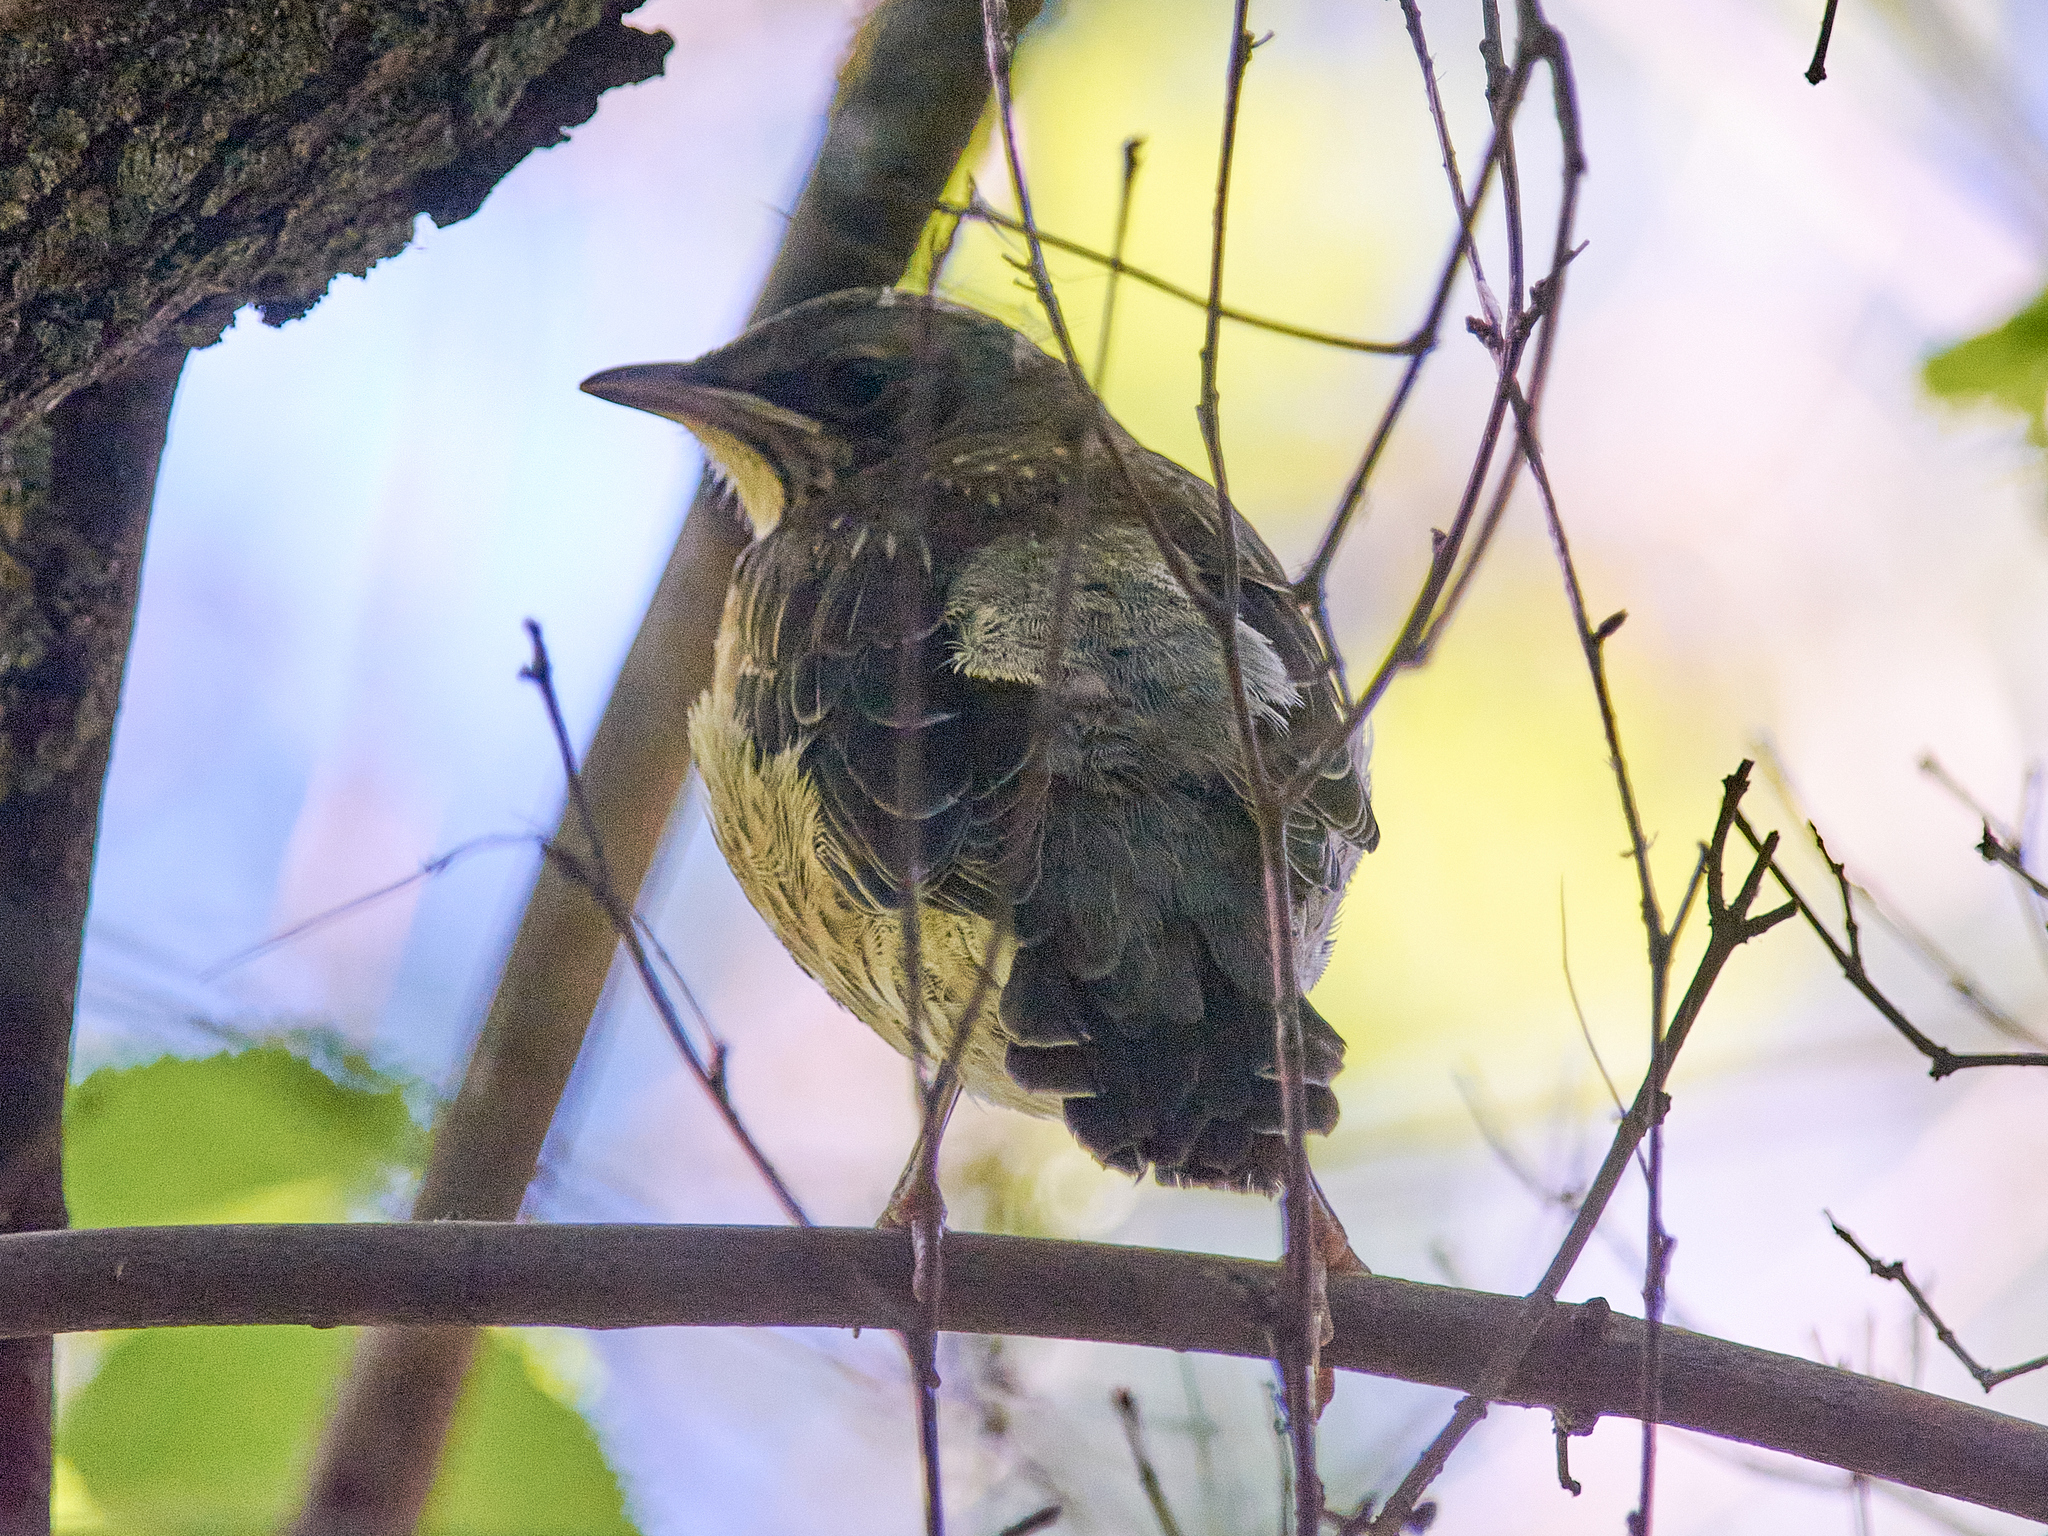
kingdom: Animalia
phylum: Chordata
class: Aves
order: Passeriformes
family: Turdidae
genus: Turdus
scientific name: Turdus pilaris
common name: Fieldfare
